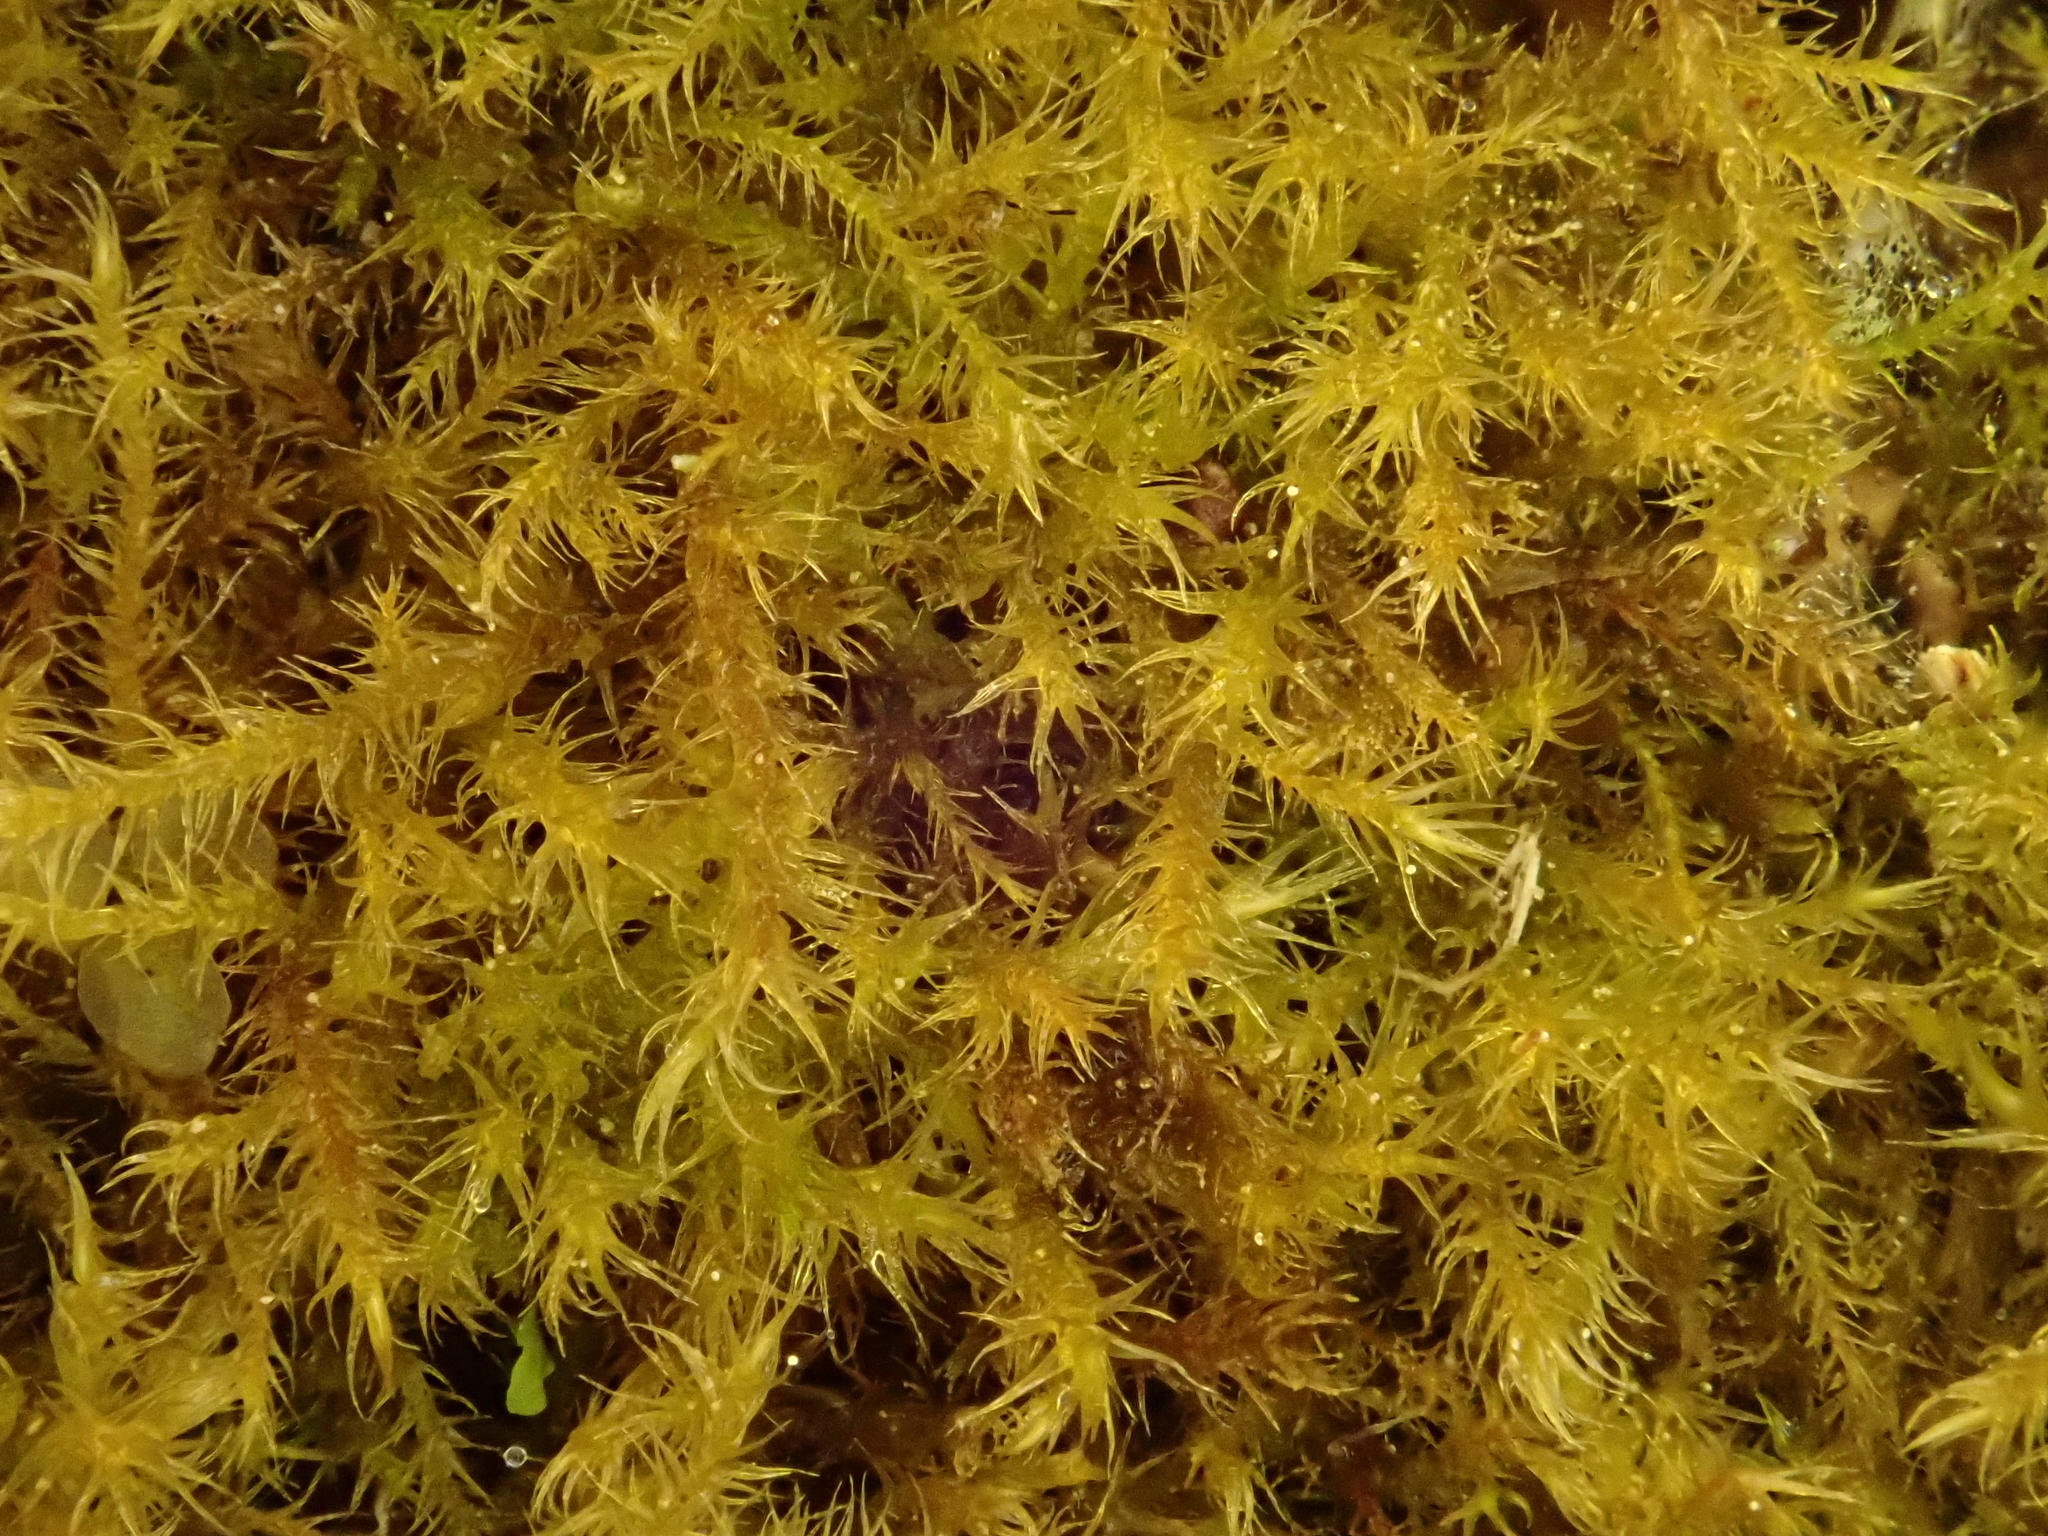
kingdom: Plantae
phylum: Bryophyta
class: Bryopsida
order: Hypnales
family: Amblystegiaceae
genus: Campylium
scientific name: Campylium chrysophyllum
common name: Goldenleaf campylium moss
